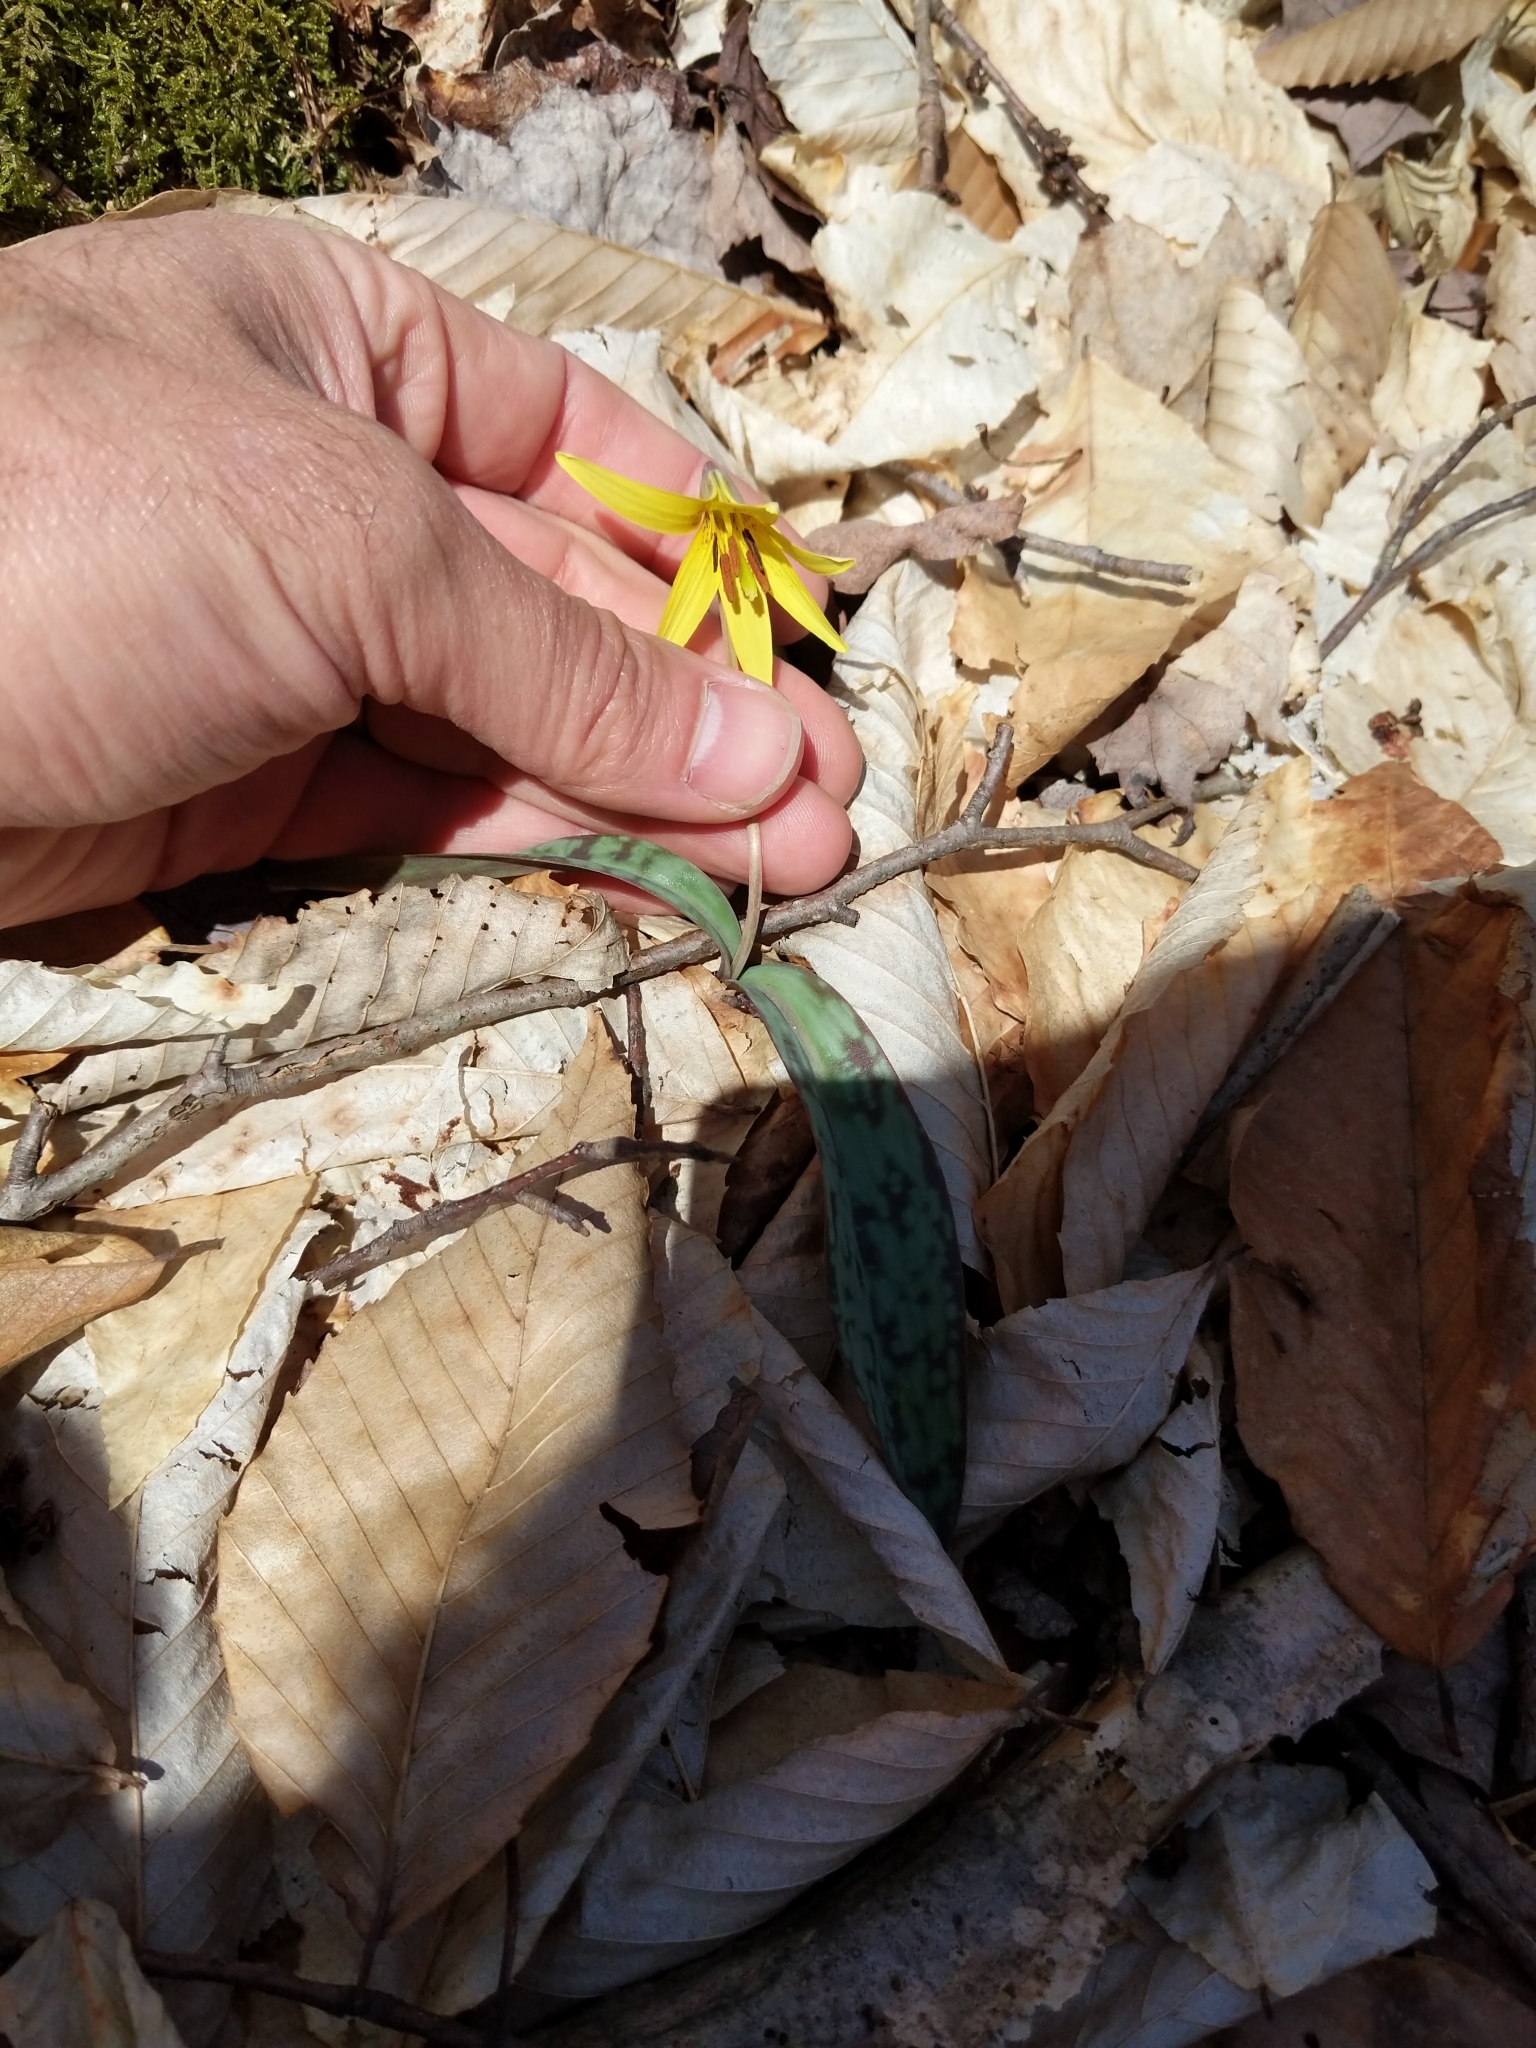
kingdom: Plantae
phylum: Tracheophyta
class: Liliopsida
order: Liliales
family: Liliaceae
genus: Erythronium
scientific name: Erythronium americanum
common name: Yellow adder's-tongue
